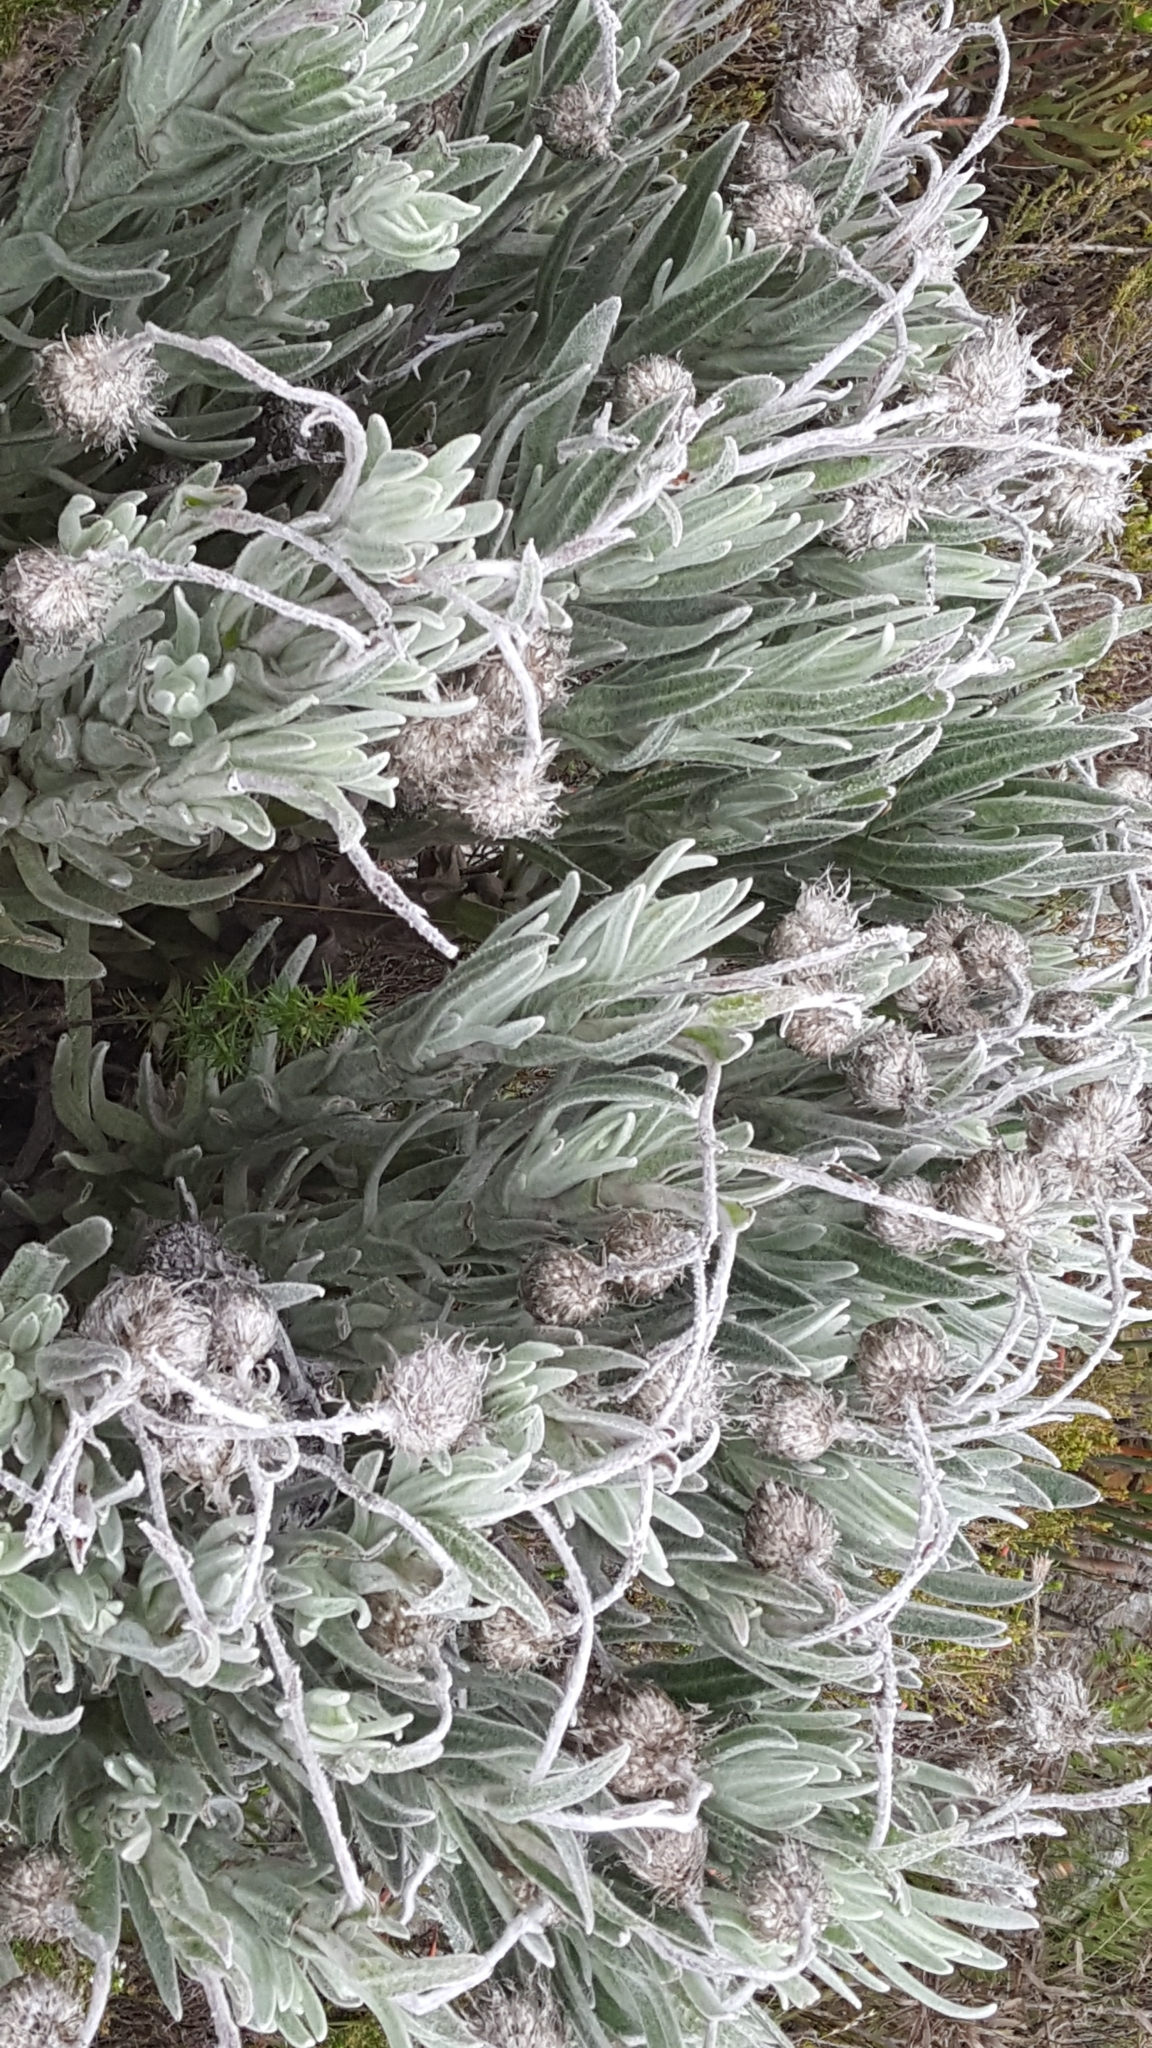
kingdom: Plantae
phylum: Tracheophyta
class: Magnoliopsida
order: Asterales
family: Asteraceae
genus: Syncarpha
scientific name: Syncarpha vestita
